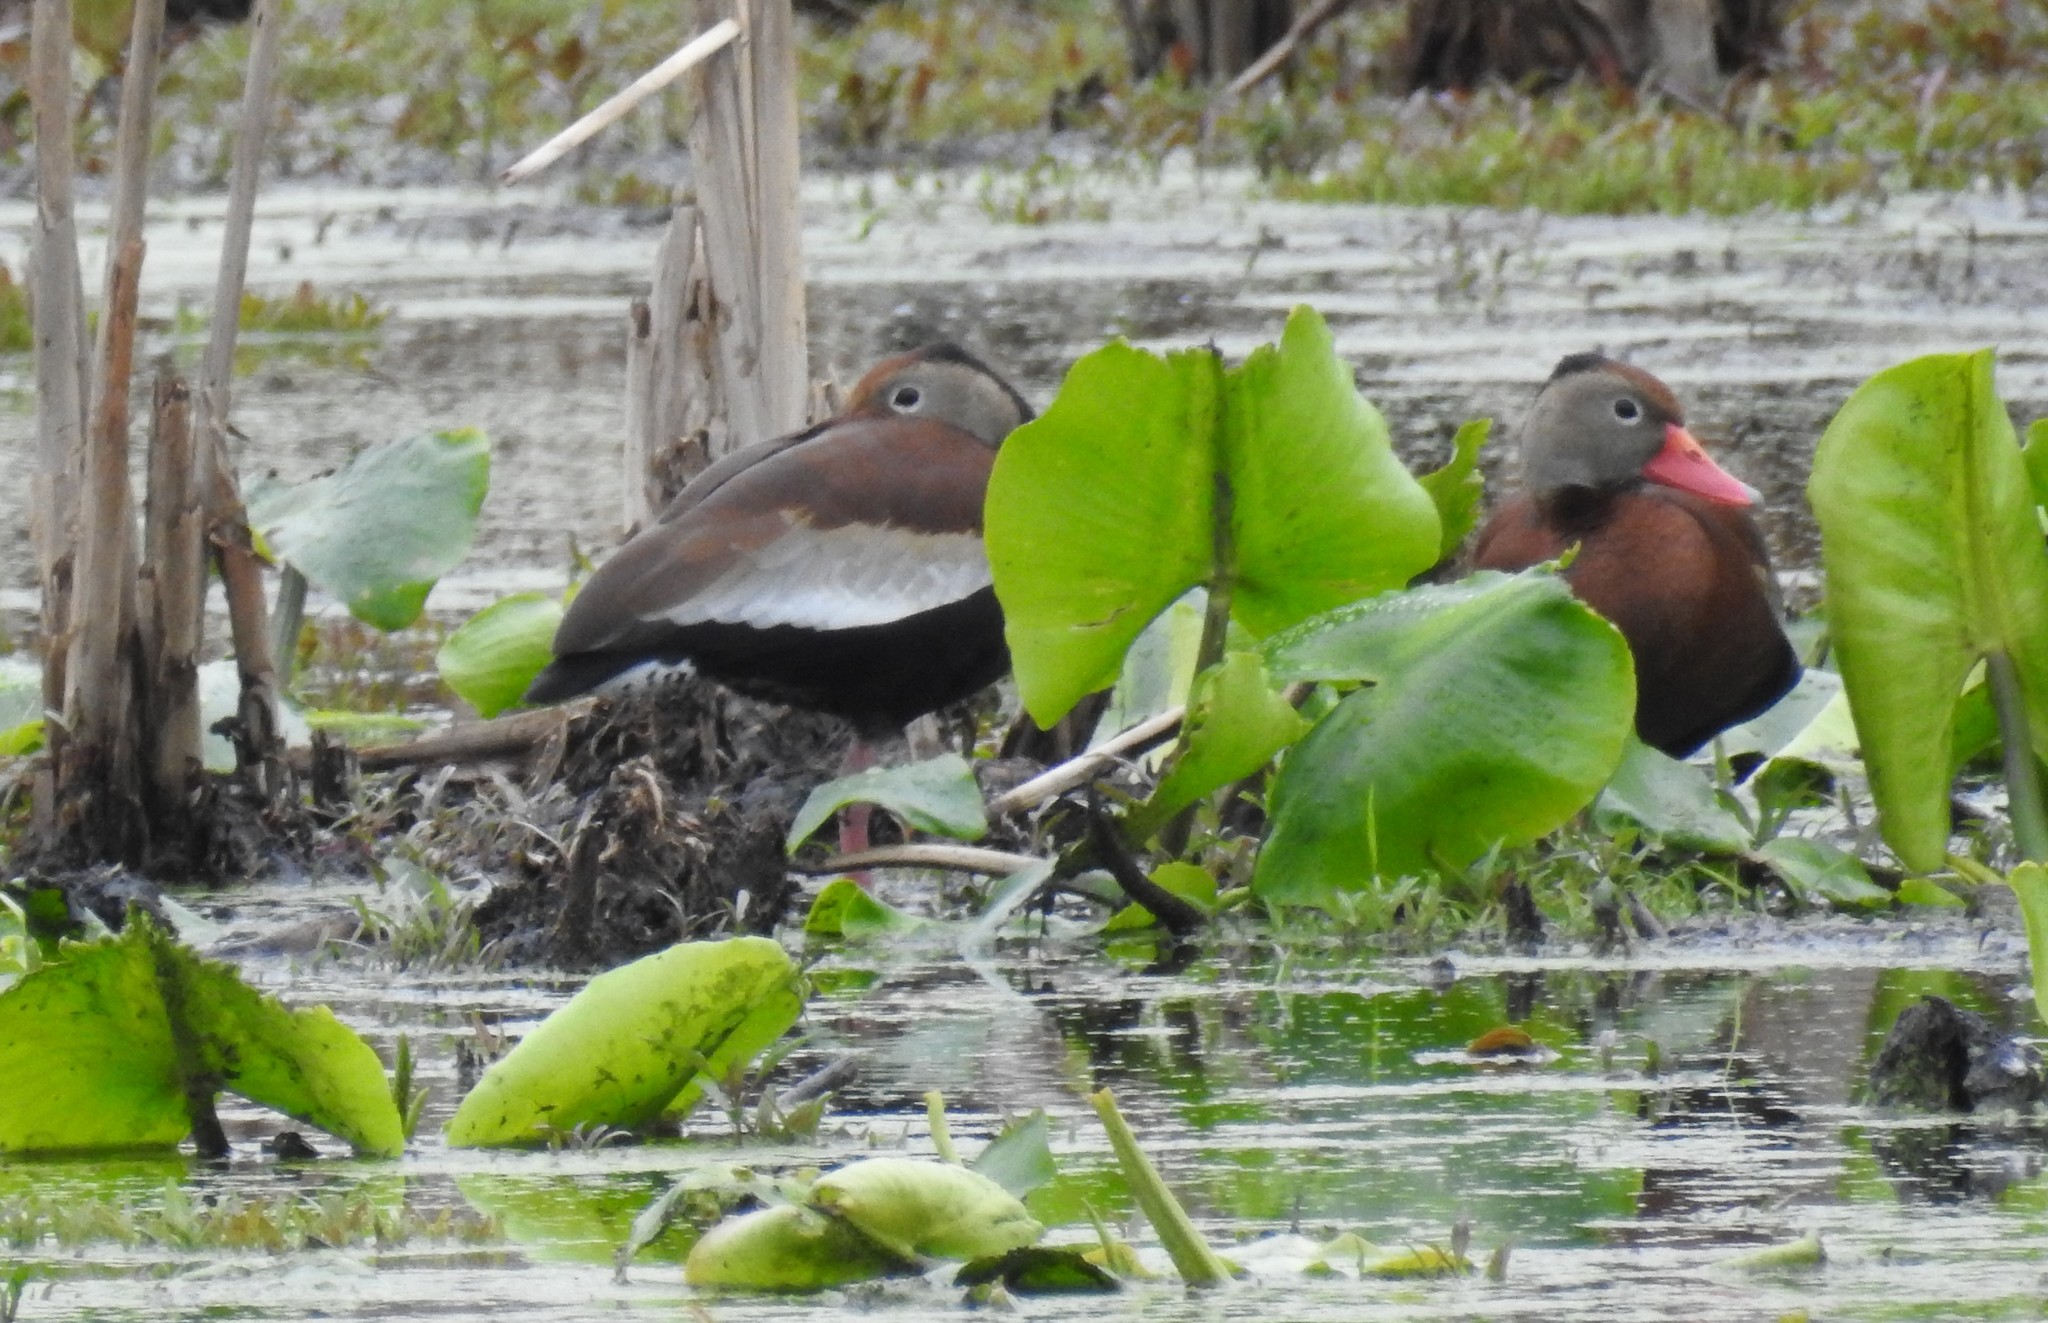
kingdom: Animalia
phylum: Chordata
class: Aves
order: Anseriformes
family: Anatidae
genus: Dendrocygna
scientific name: Dendrocygna autumnalis
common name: Black-bellied whistling duck
